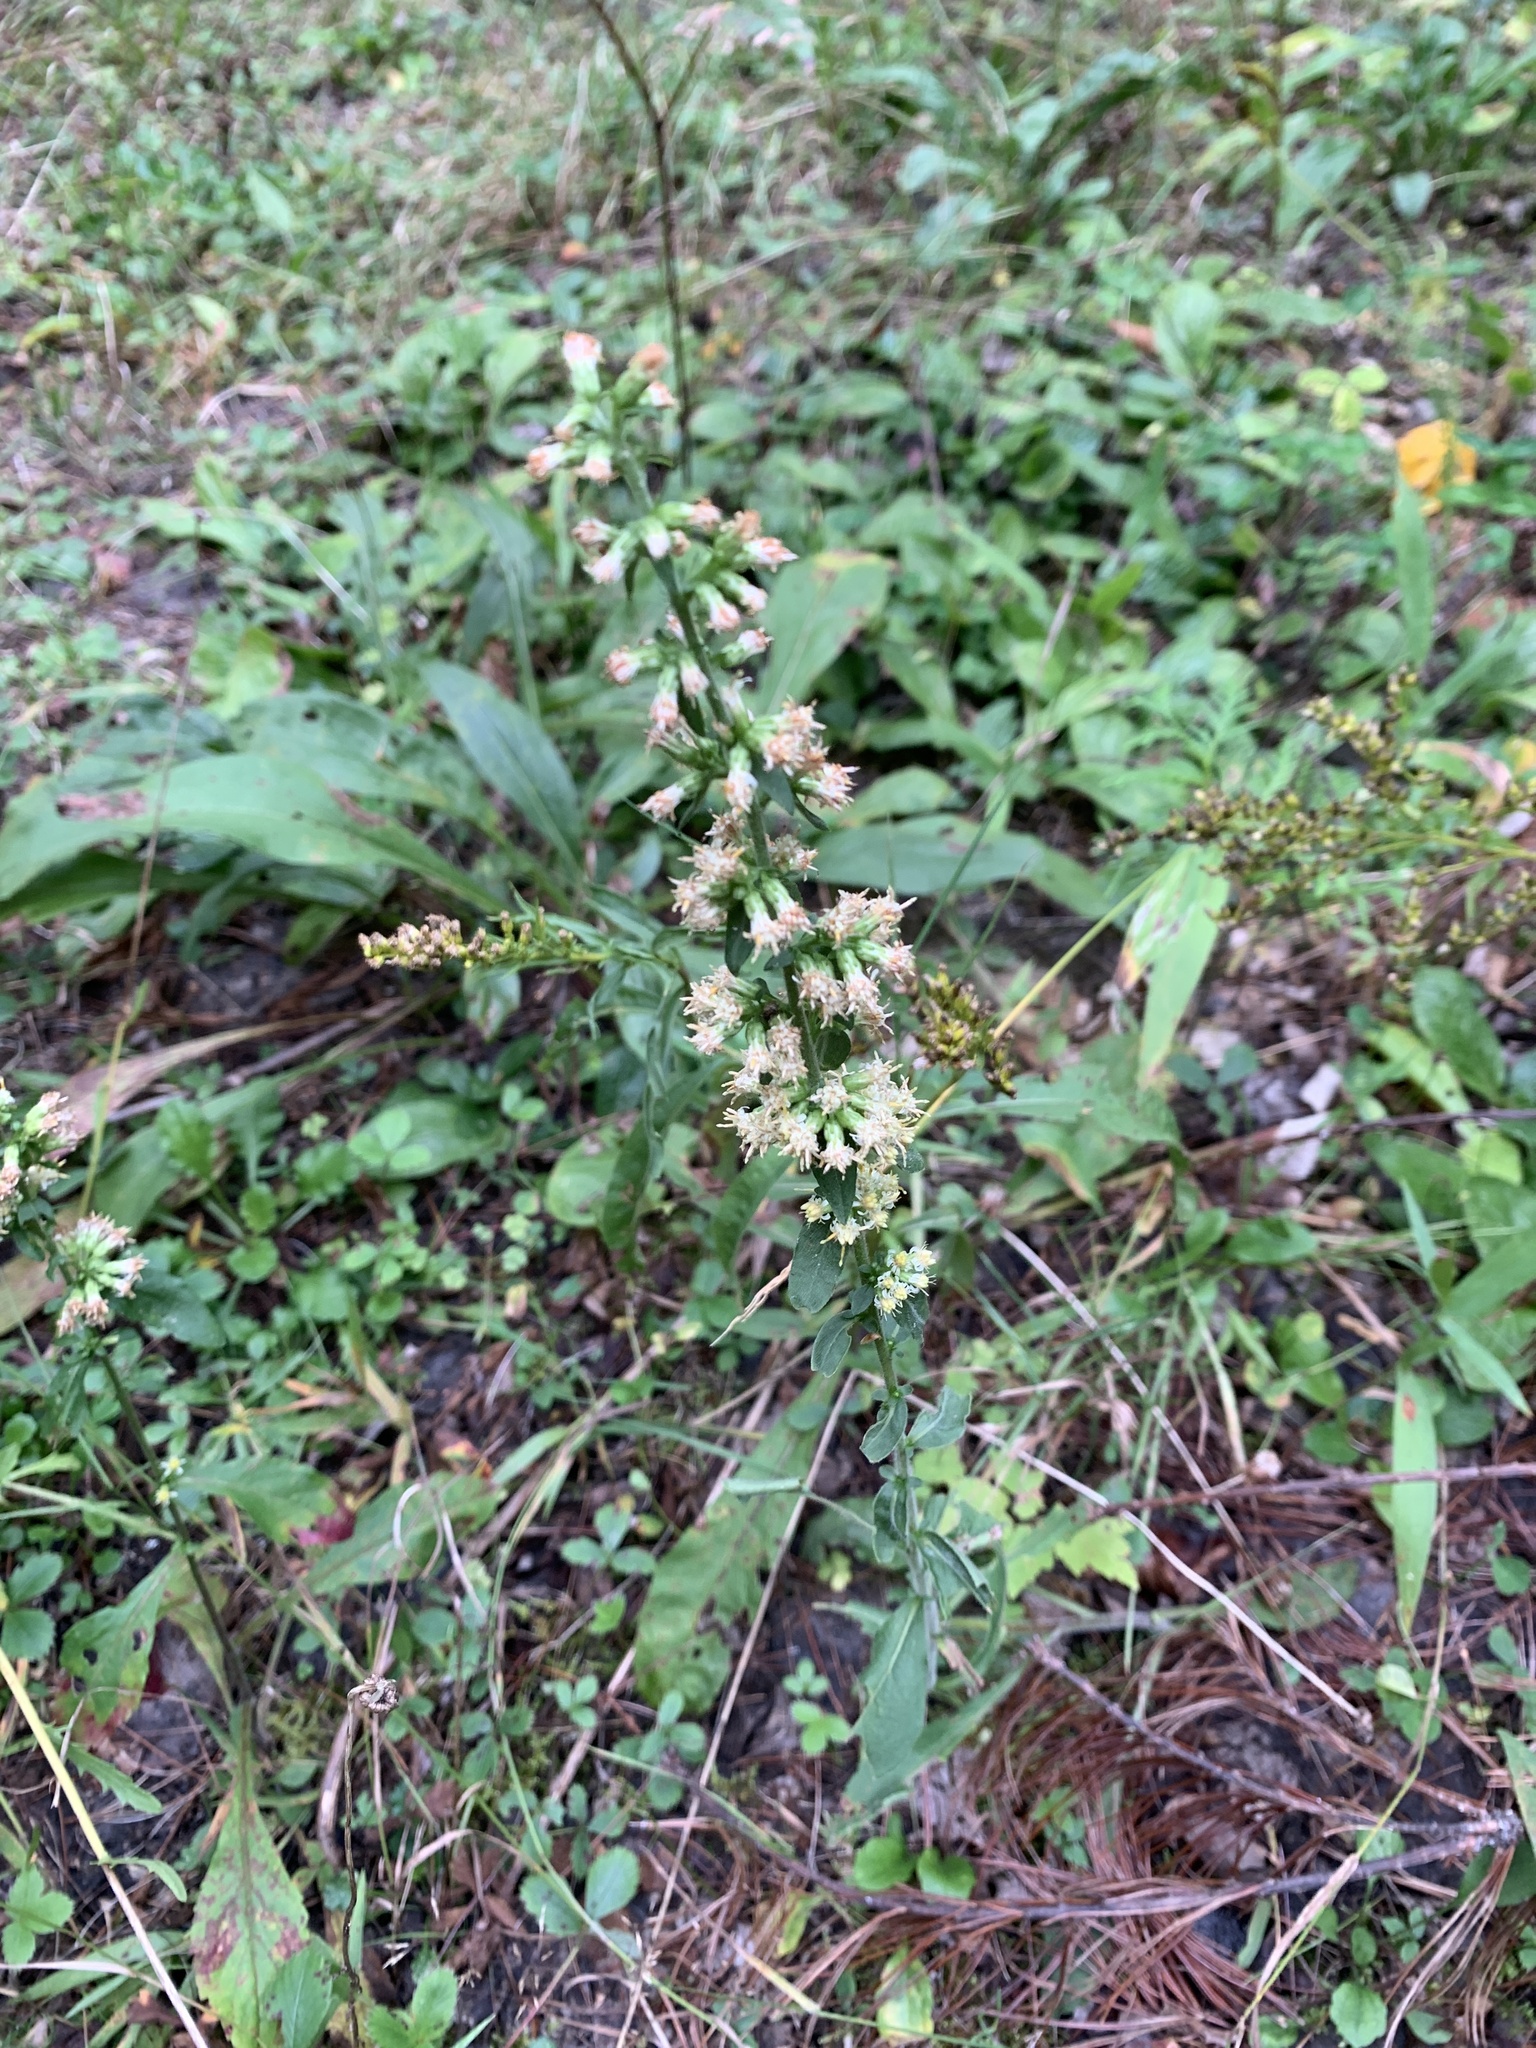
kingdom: Plantae
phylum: Tracheophyta
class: Magnoliopsida
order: Asterales
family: Asteraceae
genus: Solidago
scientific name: Solidago bicolor
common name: Silverrod
